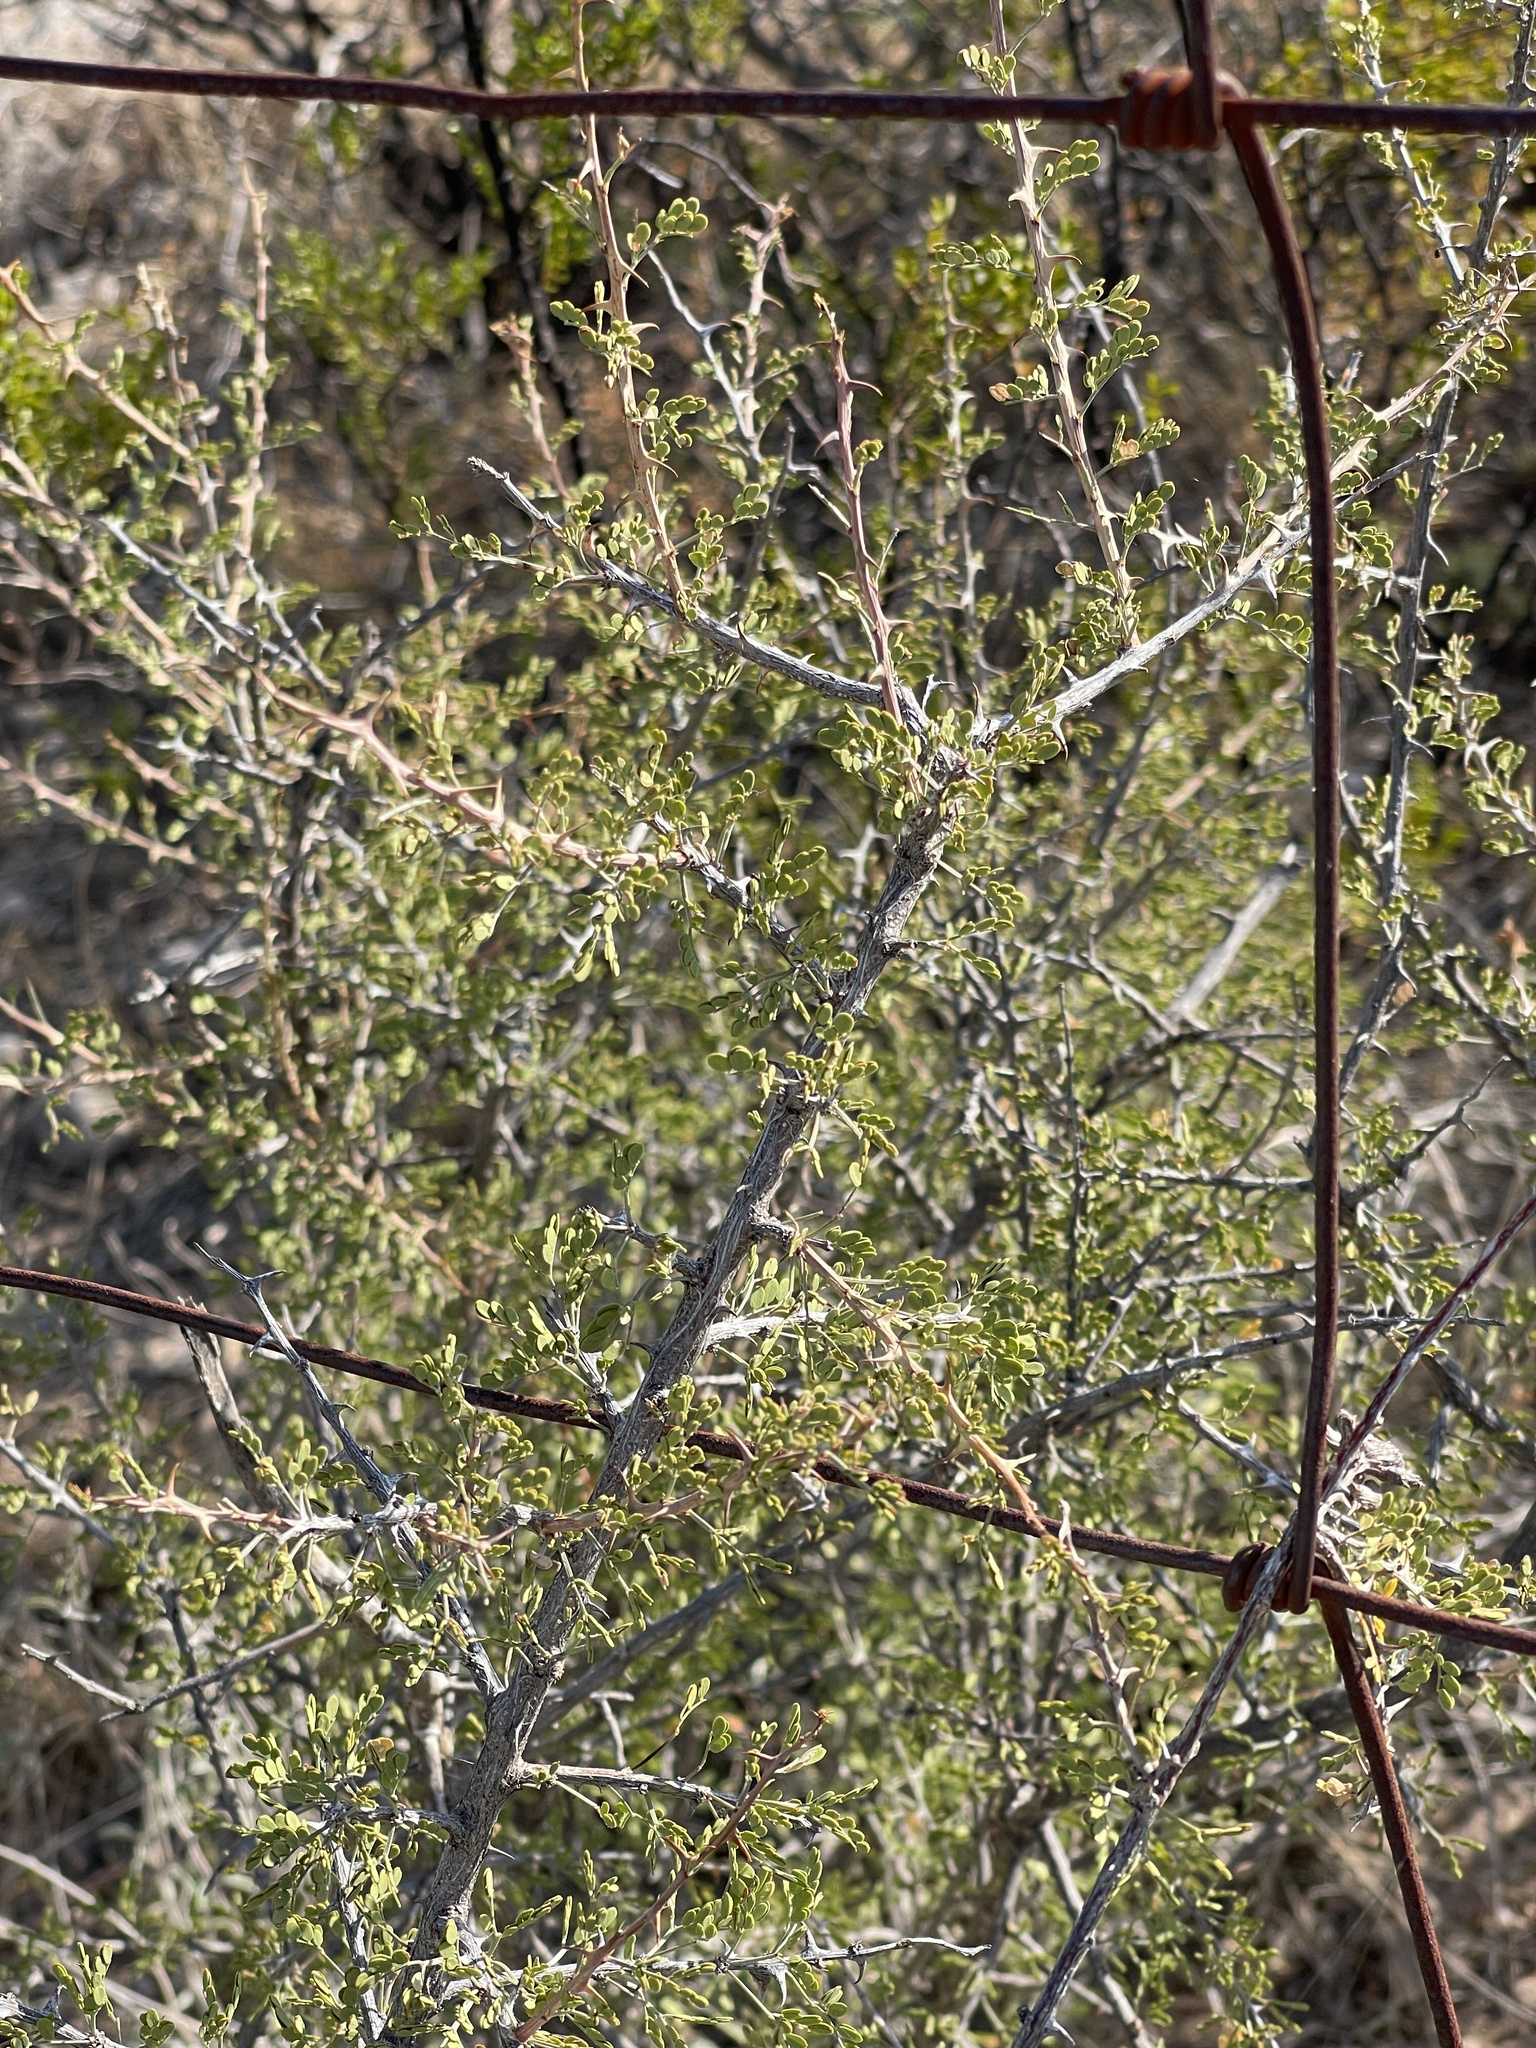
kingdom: Plantae
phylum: Tracheophyta
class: Magnoliopsida
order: Fabales
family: Fabaceae
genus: Senegalia
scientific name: Senegalia greggii
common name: Texas-mimosa
